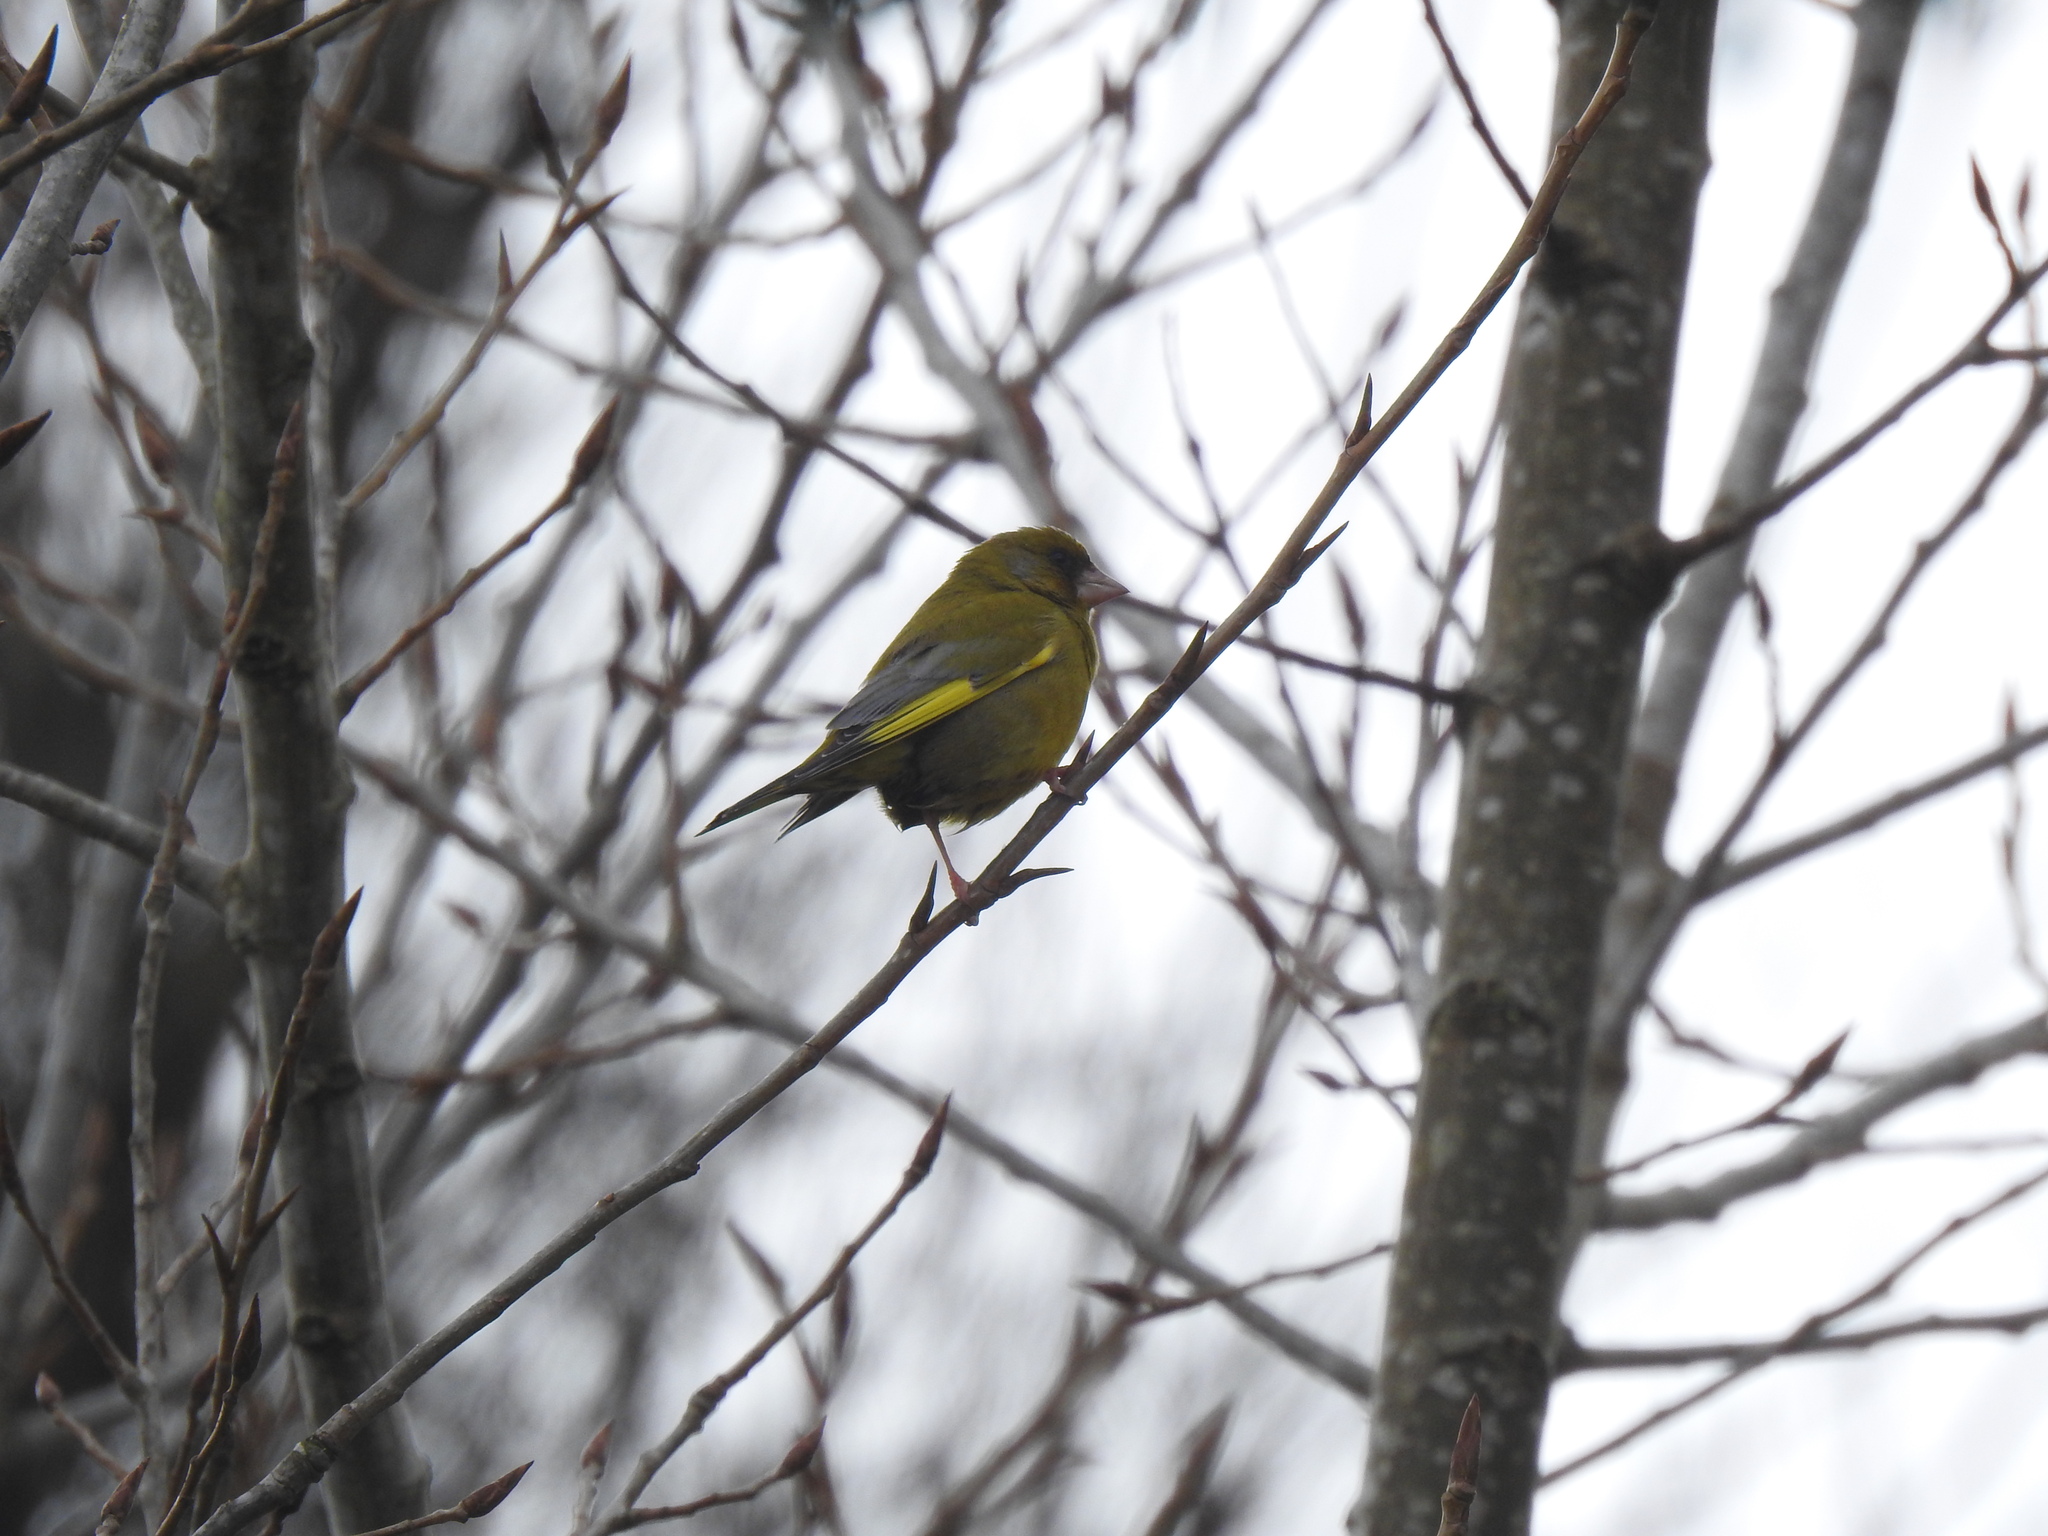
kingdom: Plantae
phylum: Tracheophyta
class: Liliopsida
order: Poales
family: Poaceae
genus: Chloris
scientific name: Chloris chloris
